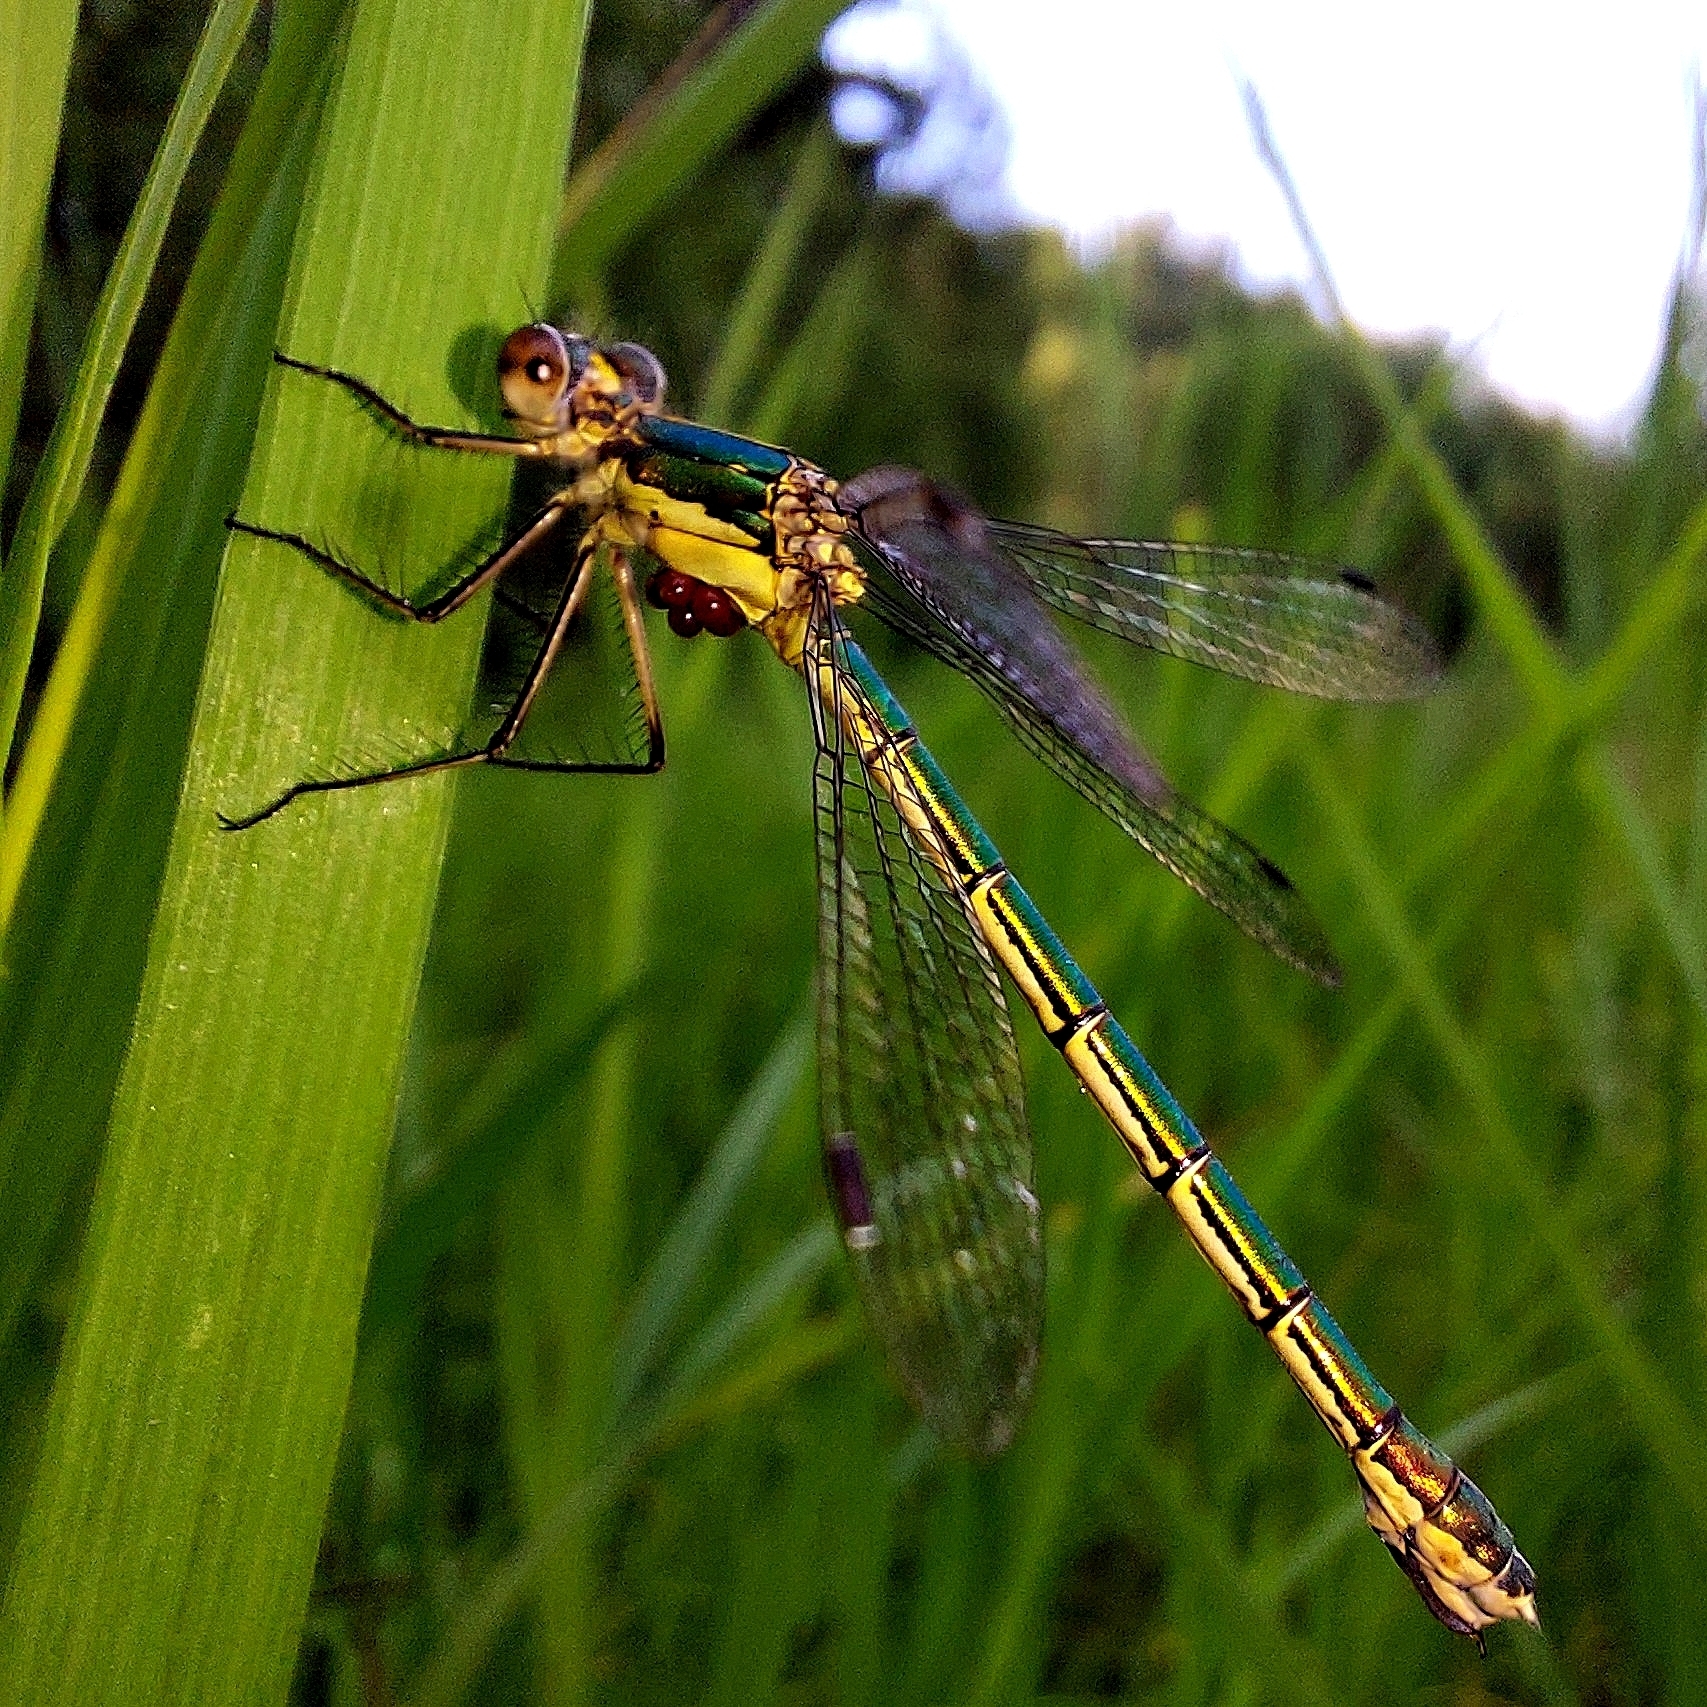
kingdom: Animalia
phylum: Arthropoda
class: Insecta
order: Odonata
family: Lestidae
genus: Lestes
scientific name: Lestes dryas
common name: Scarce emerald damselfly
